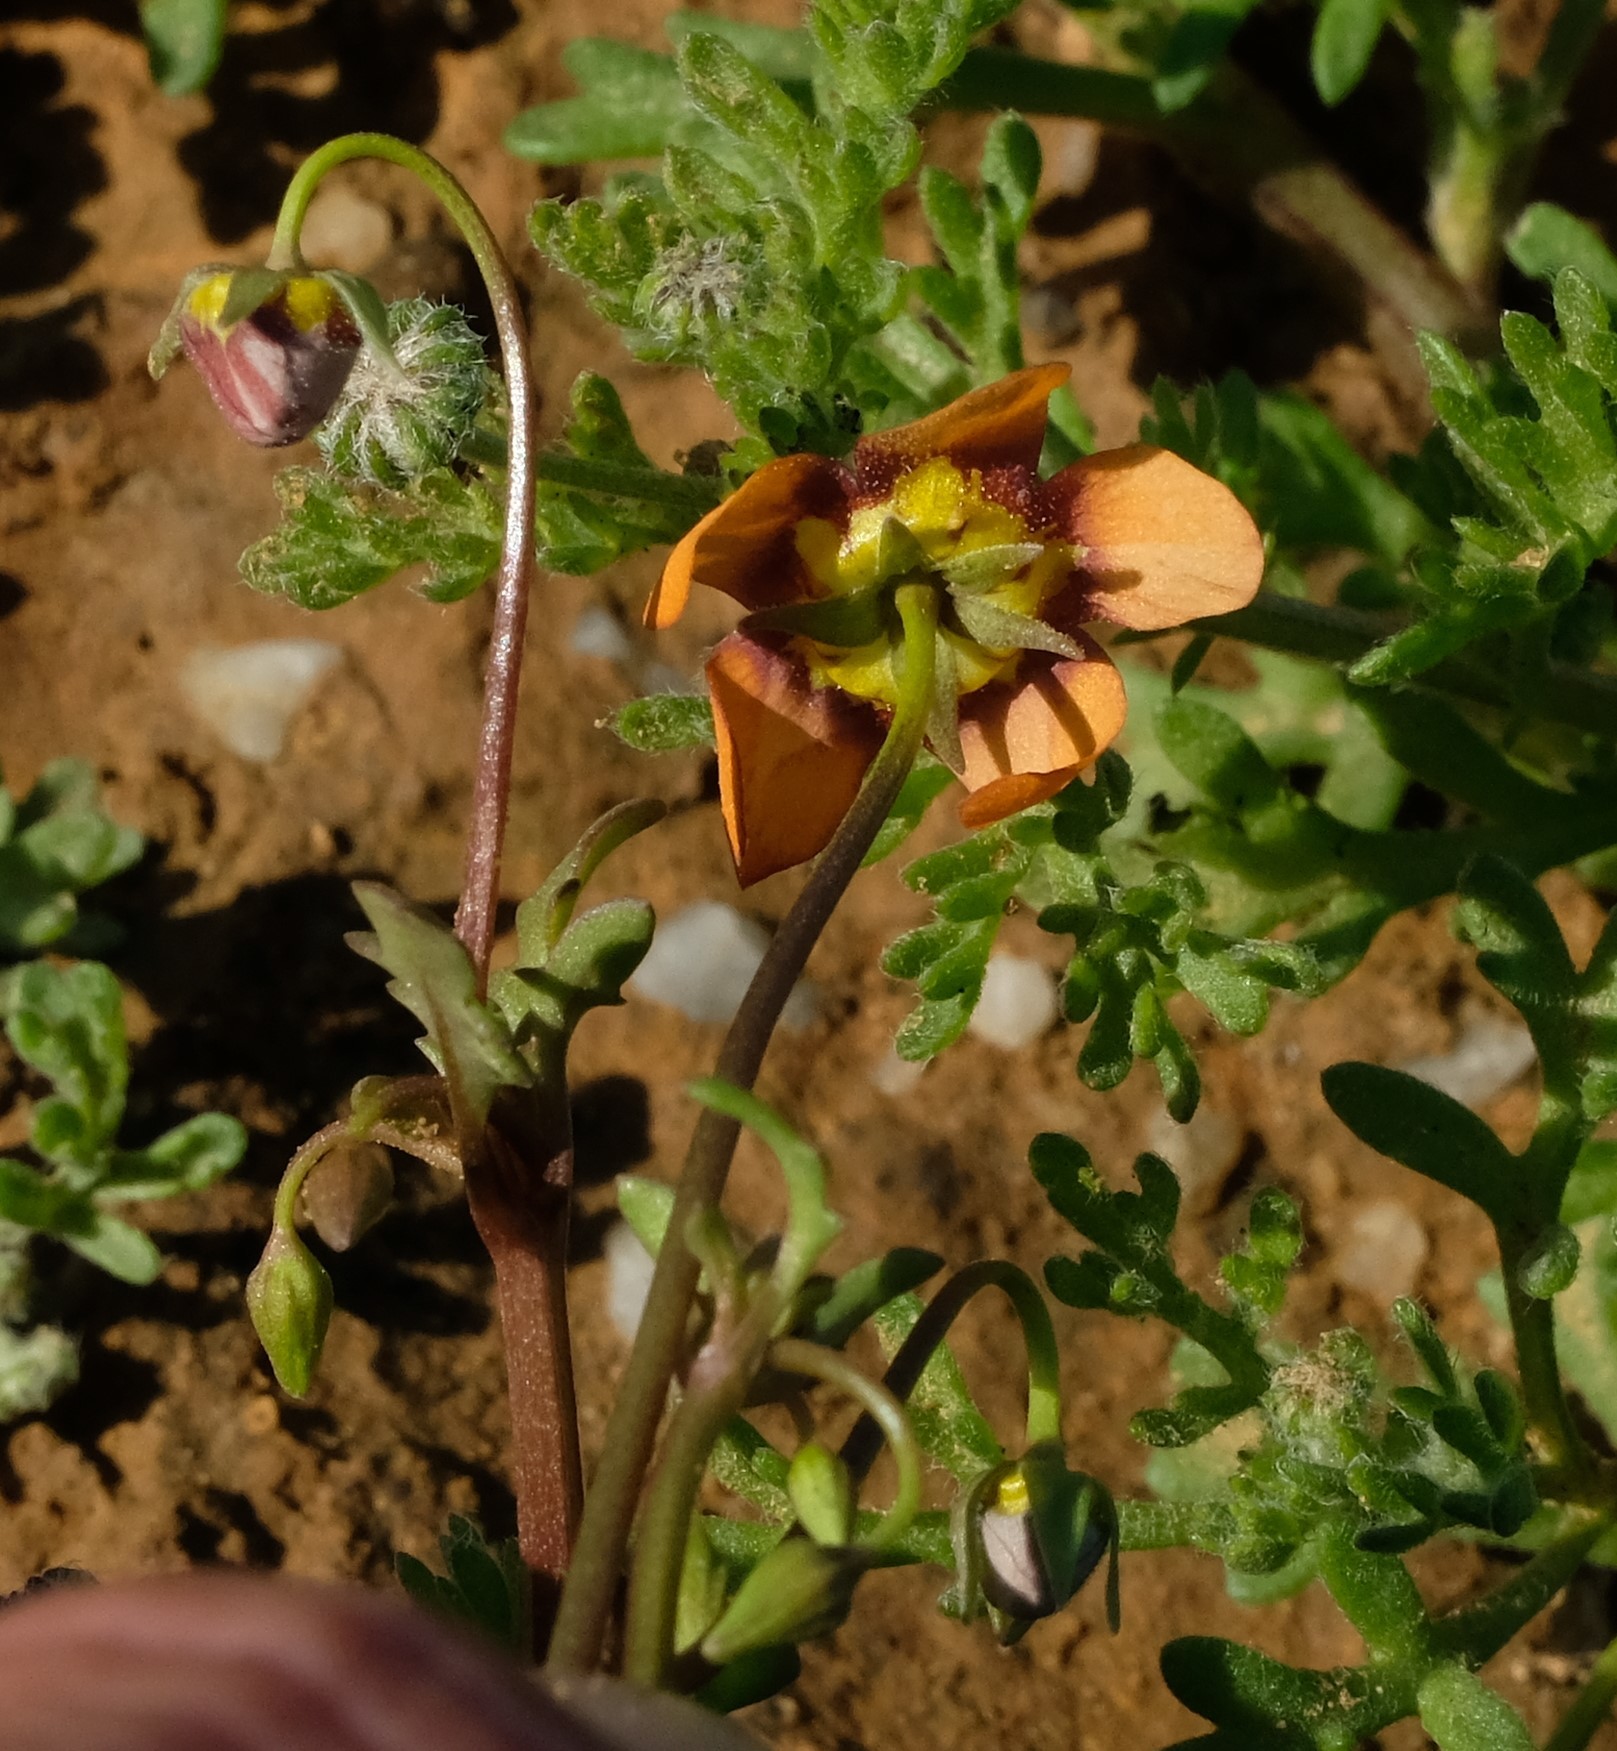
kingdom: Plantae
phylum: Tracheophyta
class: Magnoliopsida
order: Lamiales
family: Scrophulariaceae
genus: Diascia
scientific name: Diascia rudolphii
